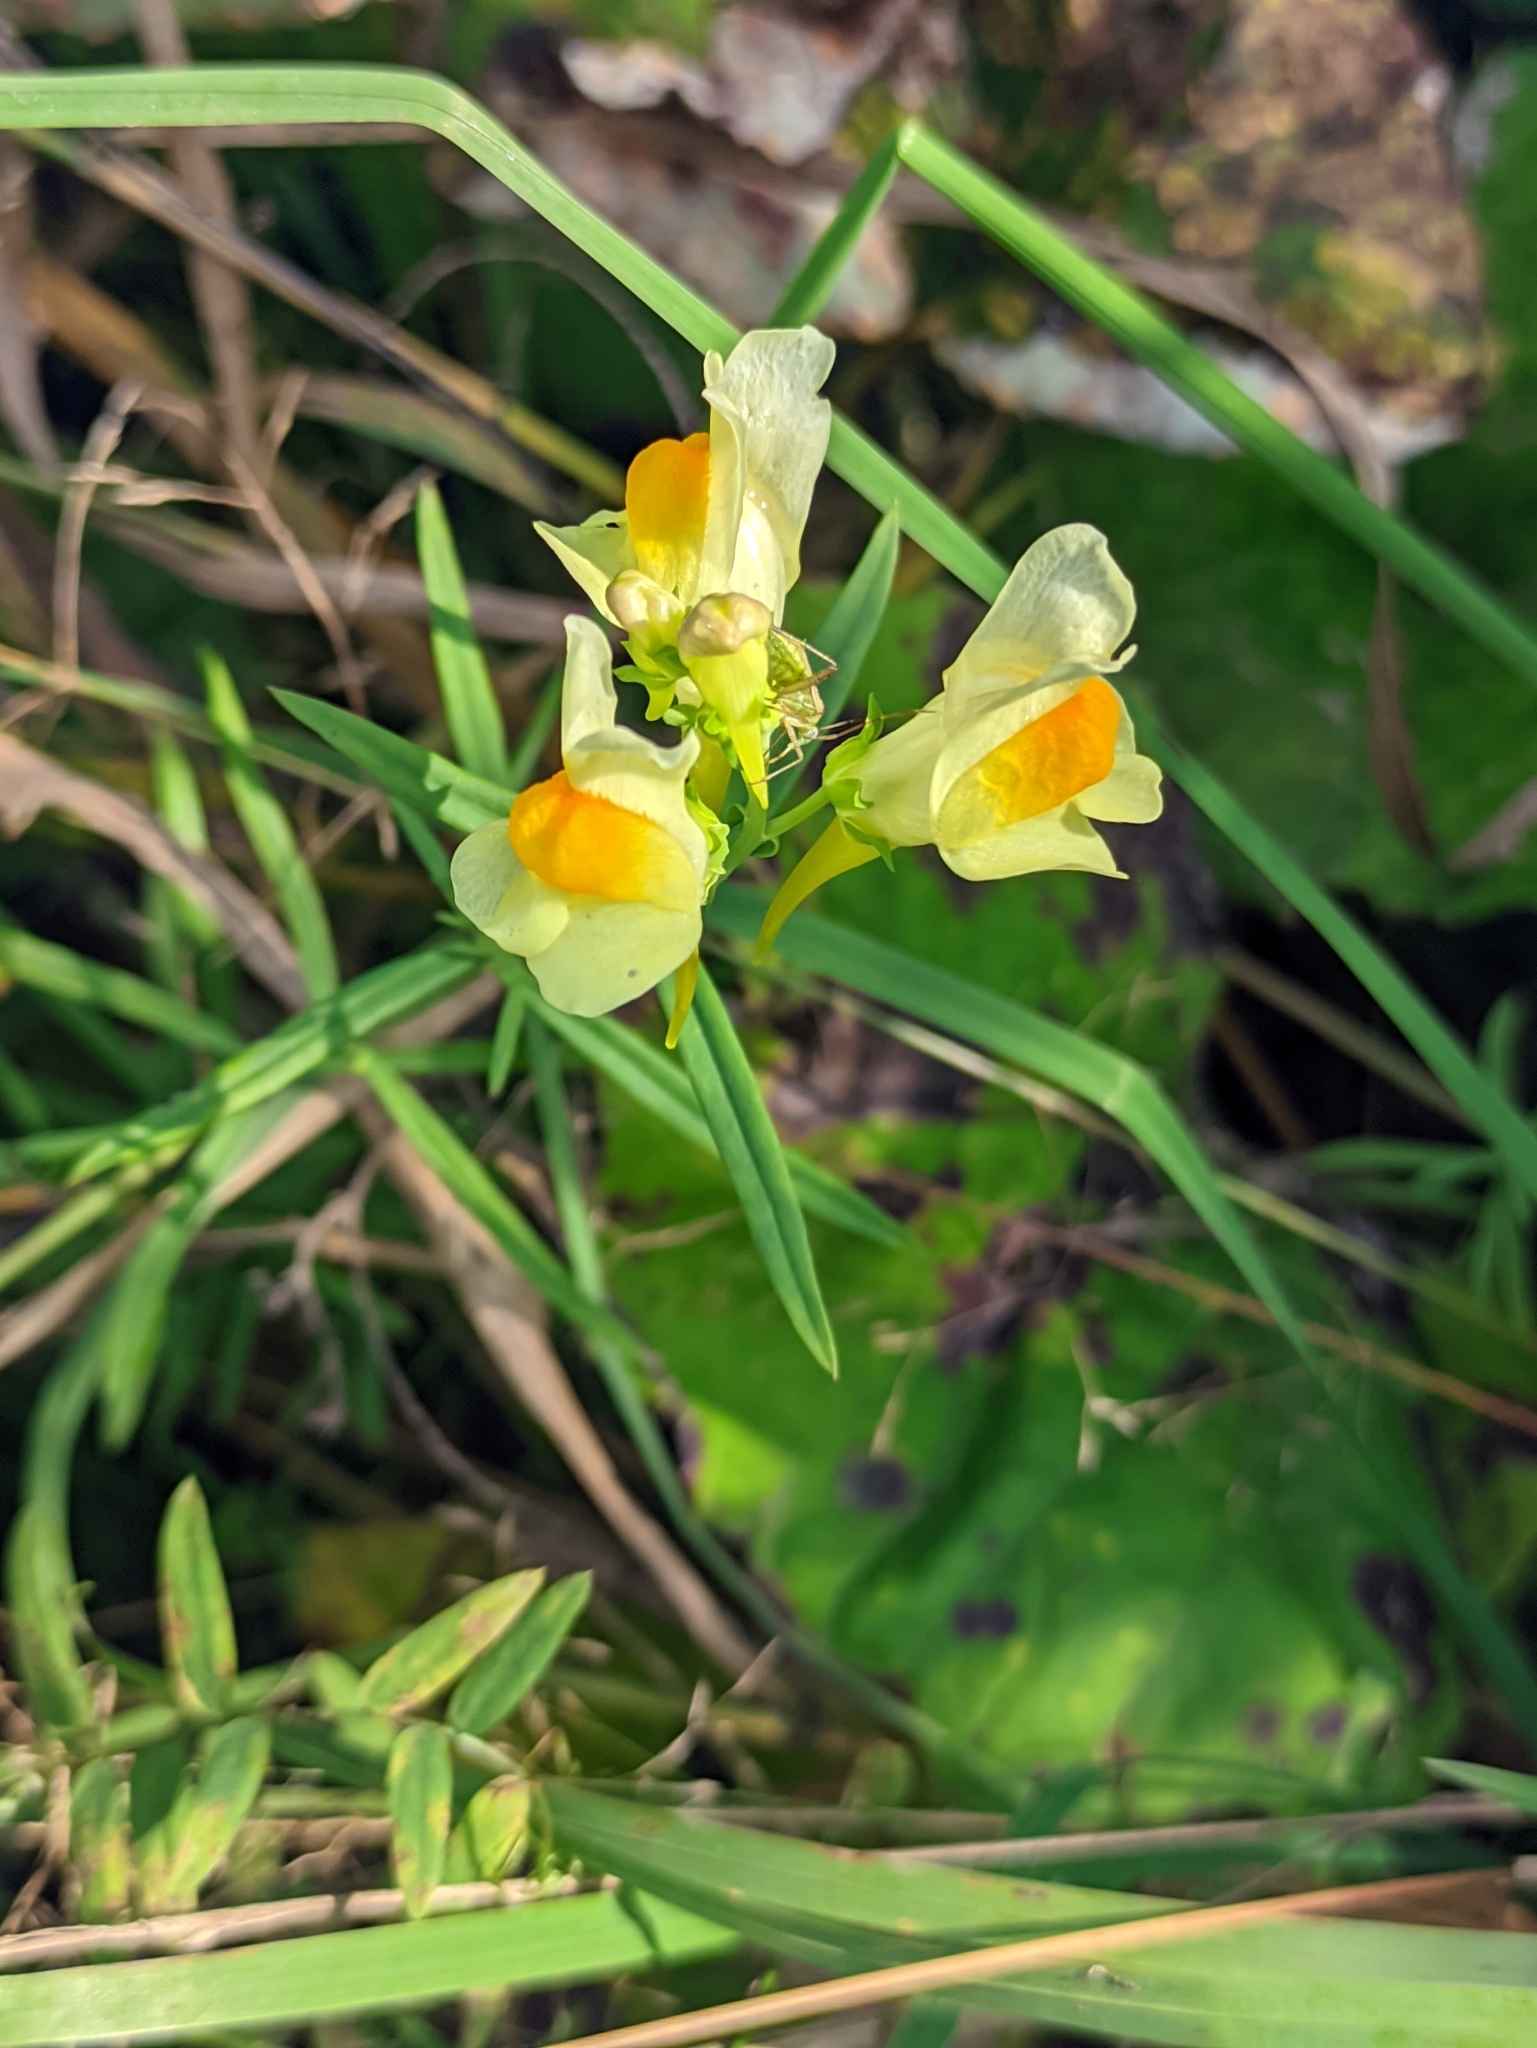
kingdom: Plantae
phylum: Tracheophyta
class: Magnoliopsida
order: Lamiales
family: Plantaginaceae
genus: Linaria
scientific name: Linaria vulgaris
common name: Butter and eggs
